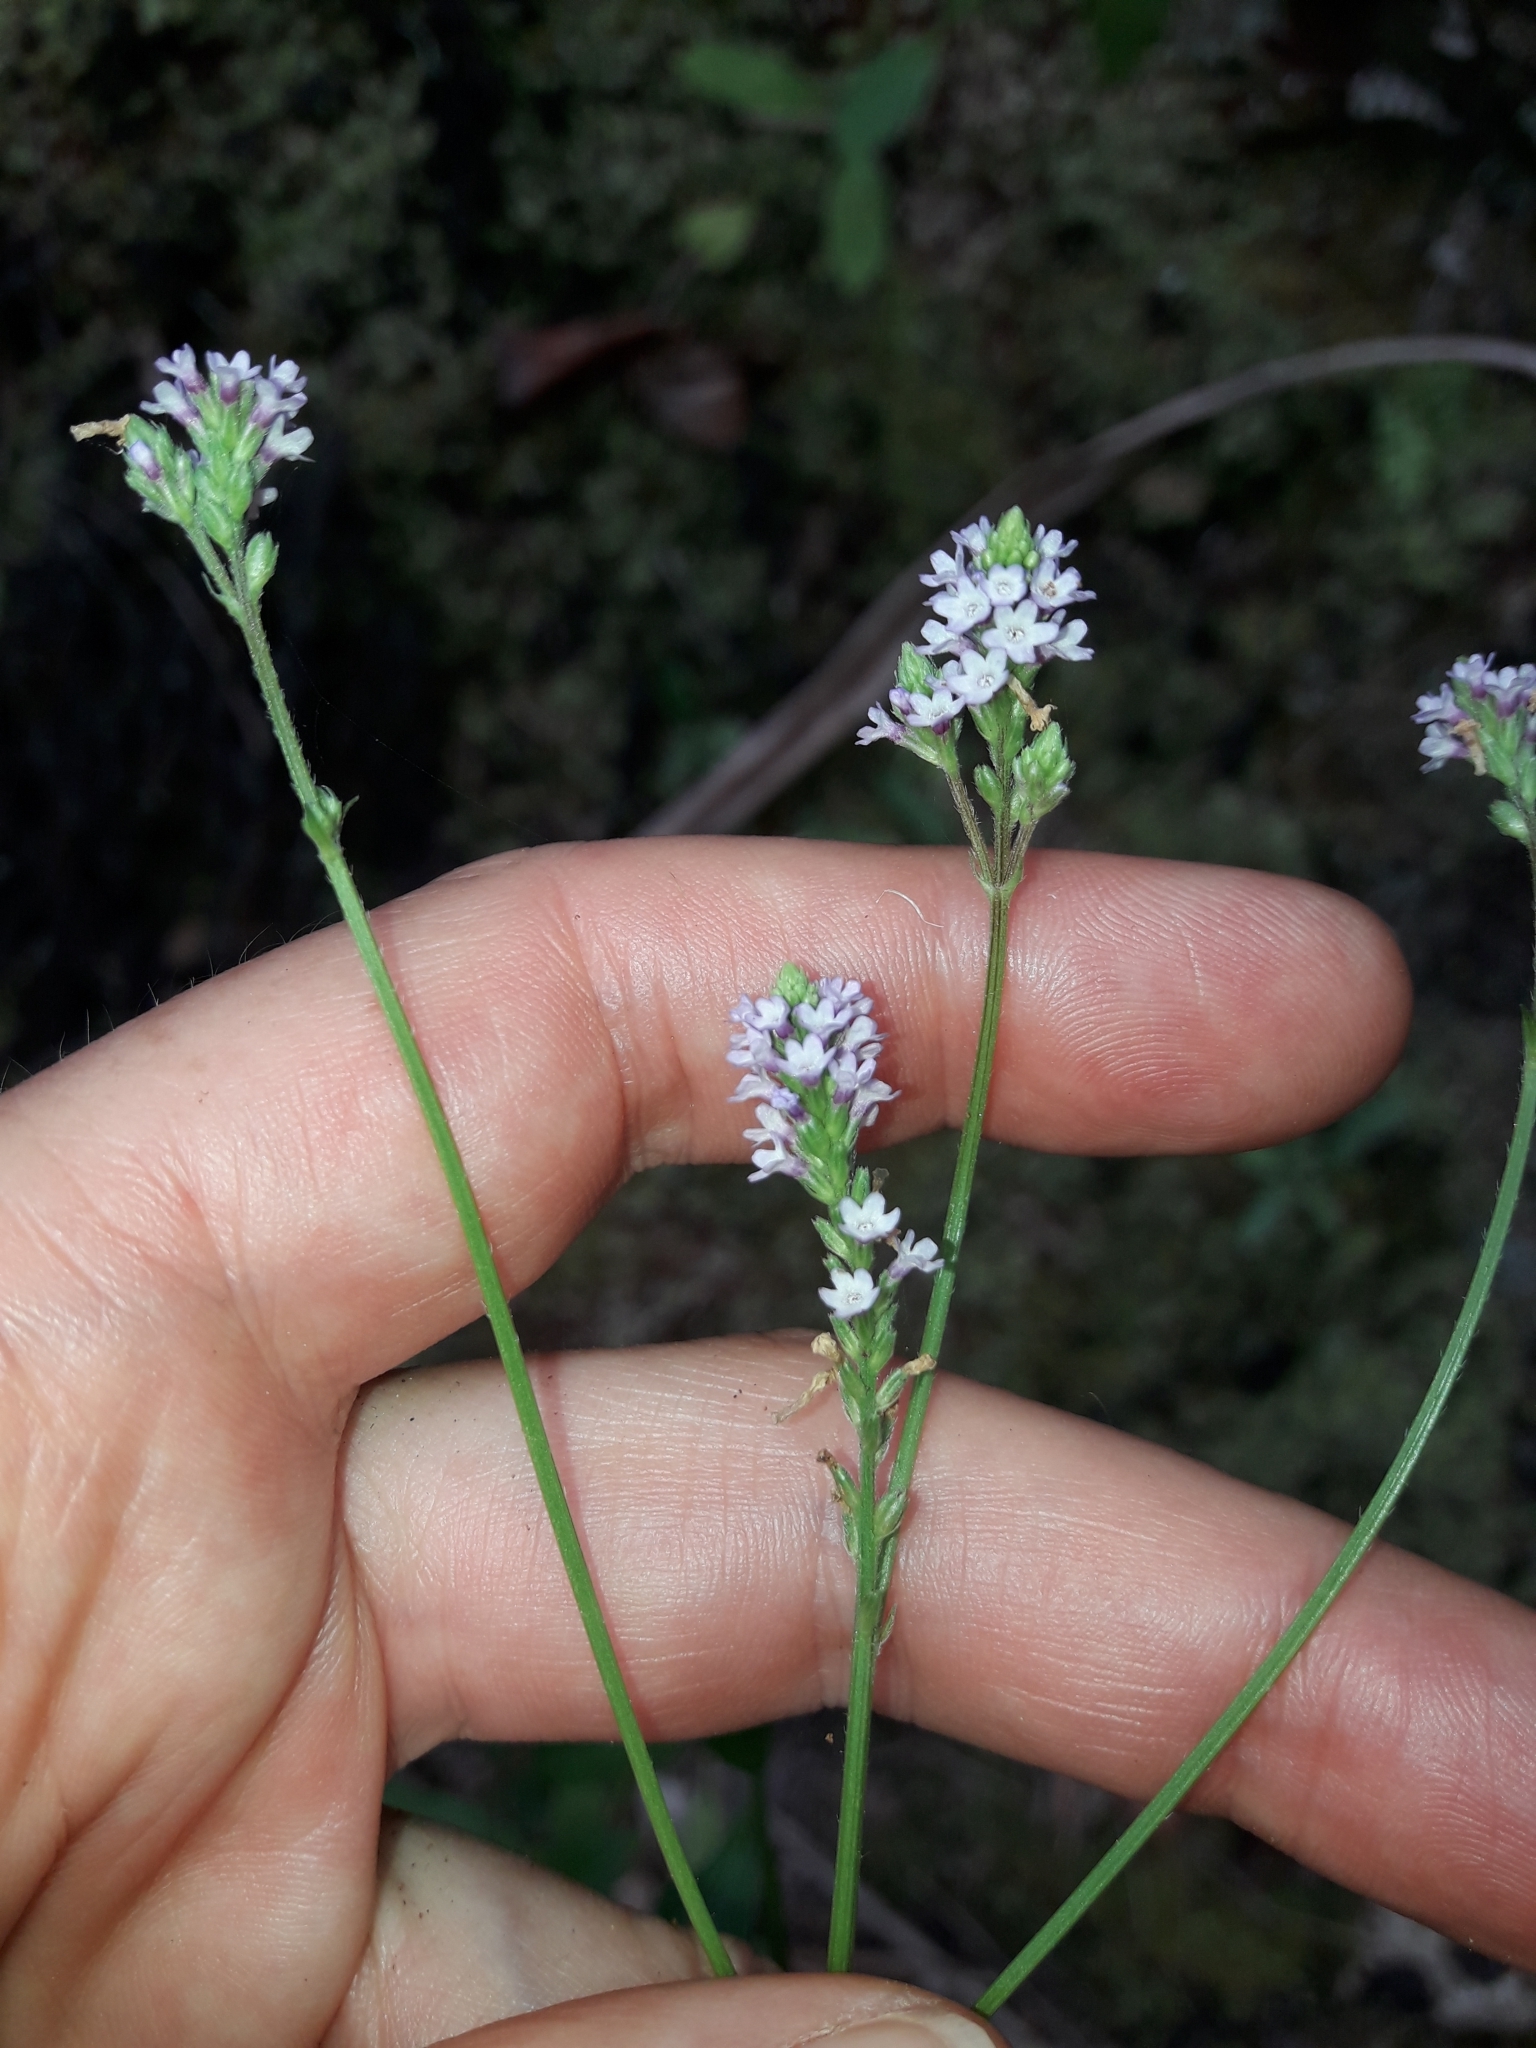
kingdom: Plantae
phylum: Tracheophyta
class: Magnoliopsida
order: Lamiales
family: Verbenaceae
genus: Verbena
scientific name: Verbena litoralis
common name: Seashore vervain
